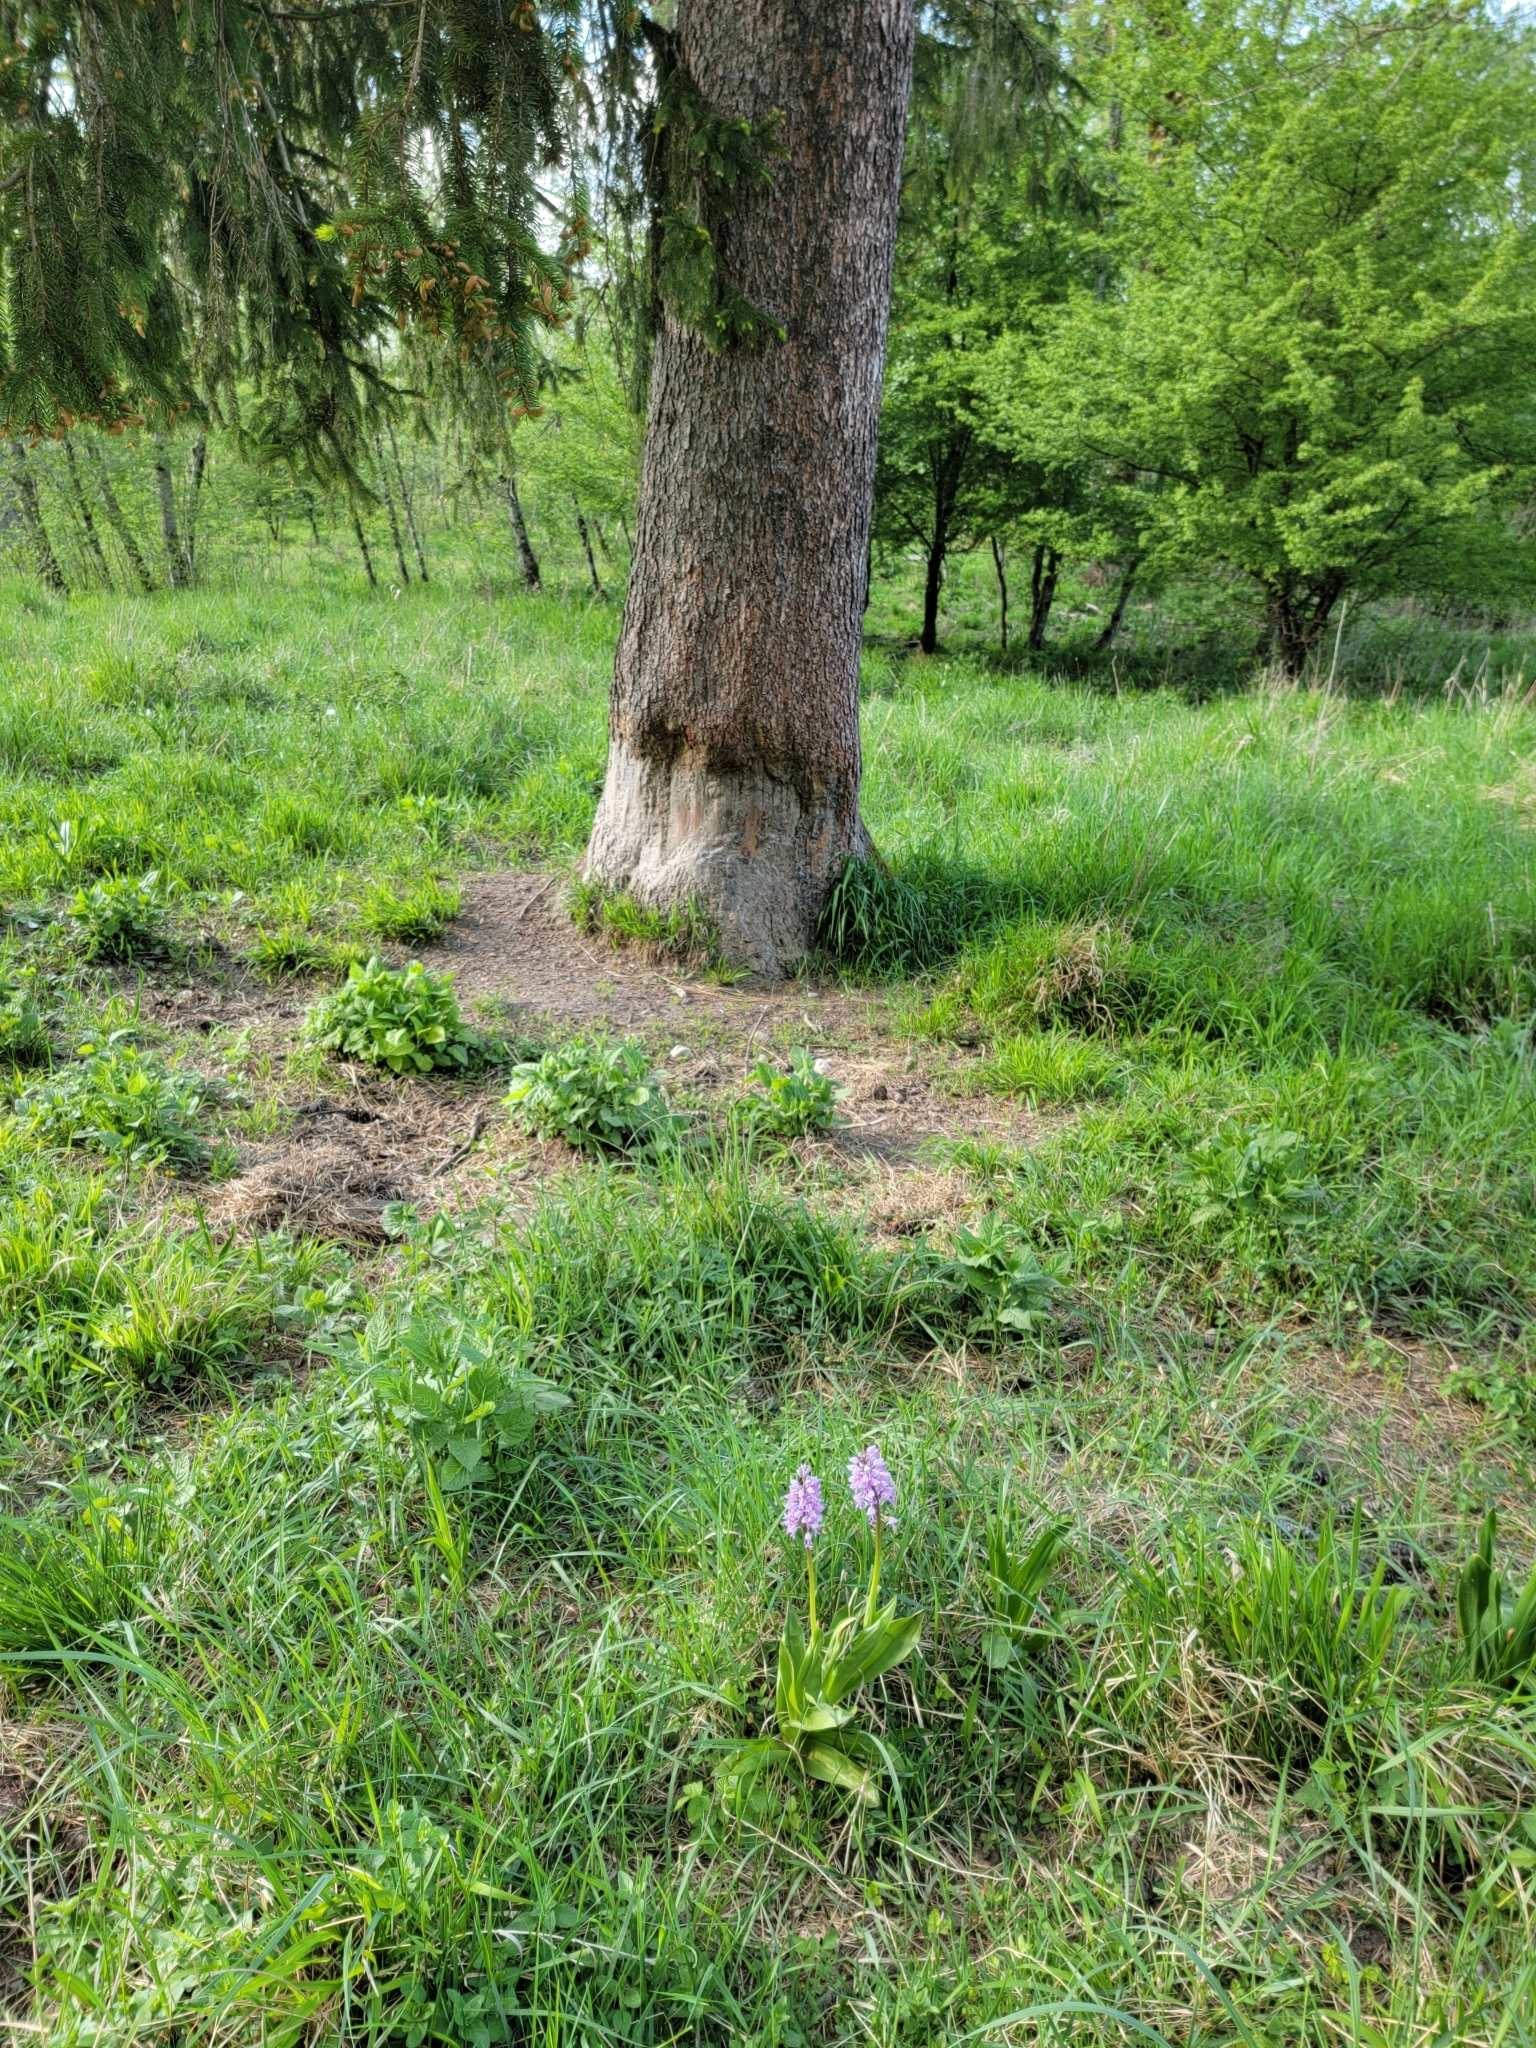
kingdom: Plantae
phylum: Tracheophyta
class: Liliopsida
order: Asparagales
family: Orchidaceae
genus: Orchis
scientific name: Orchis militaris
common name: Military orchid
